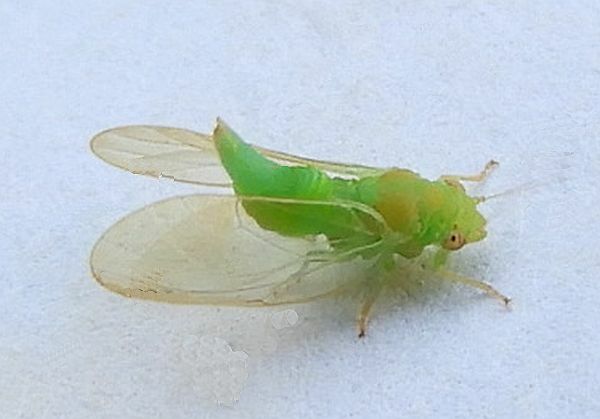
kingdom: Animalia
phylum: Arthropoda
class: Insecta
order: Hemiptera
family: Psyllidae
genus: Psylla
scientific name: Psylla carpinicola
